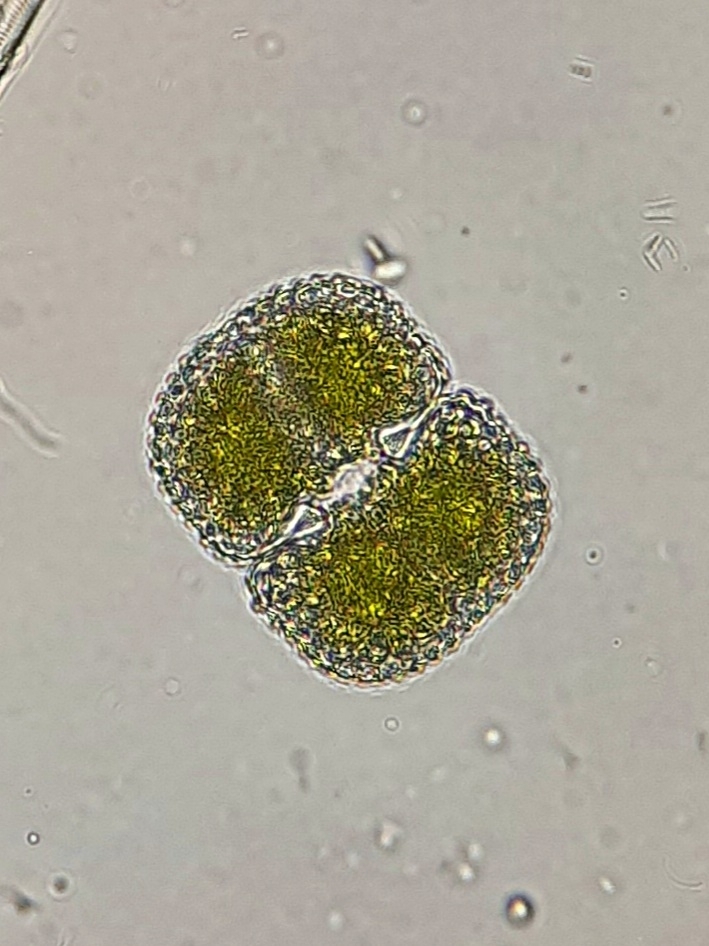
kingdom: Plantae
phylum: Charophyta
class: Conjugatophyceae
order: Desmidiales
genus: Cosmarium
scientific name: Cosmarium quadrum
